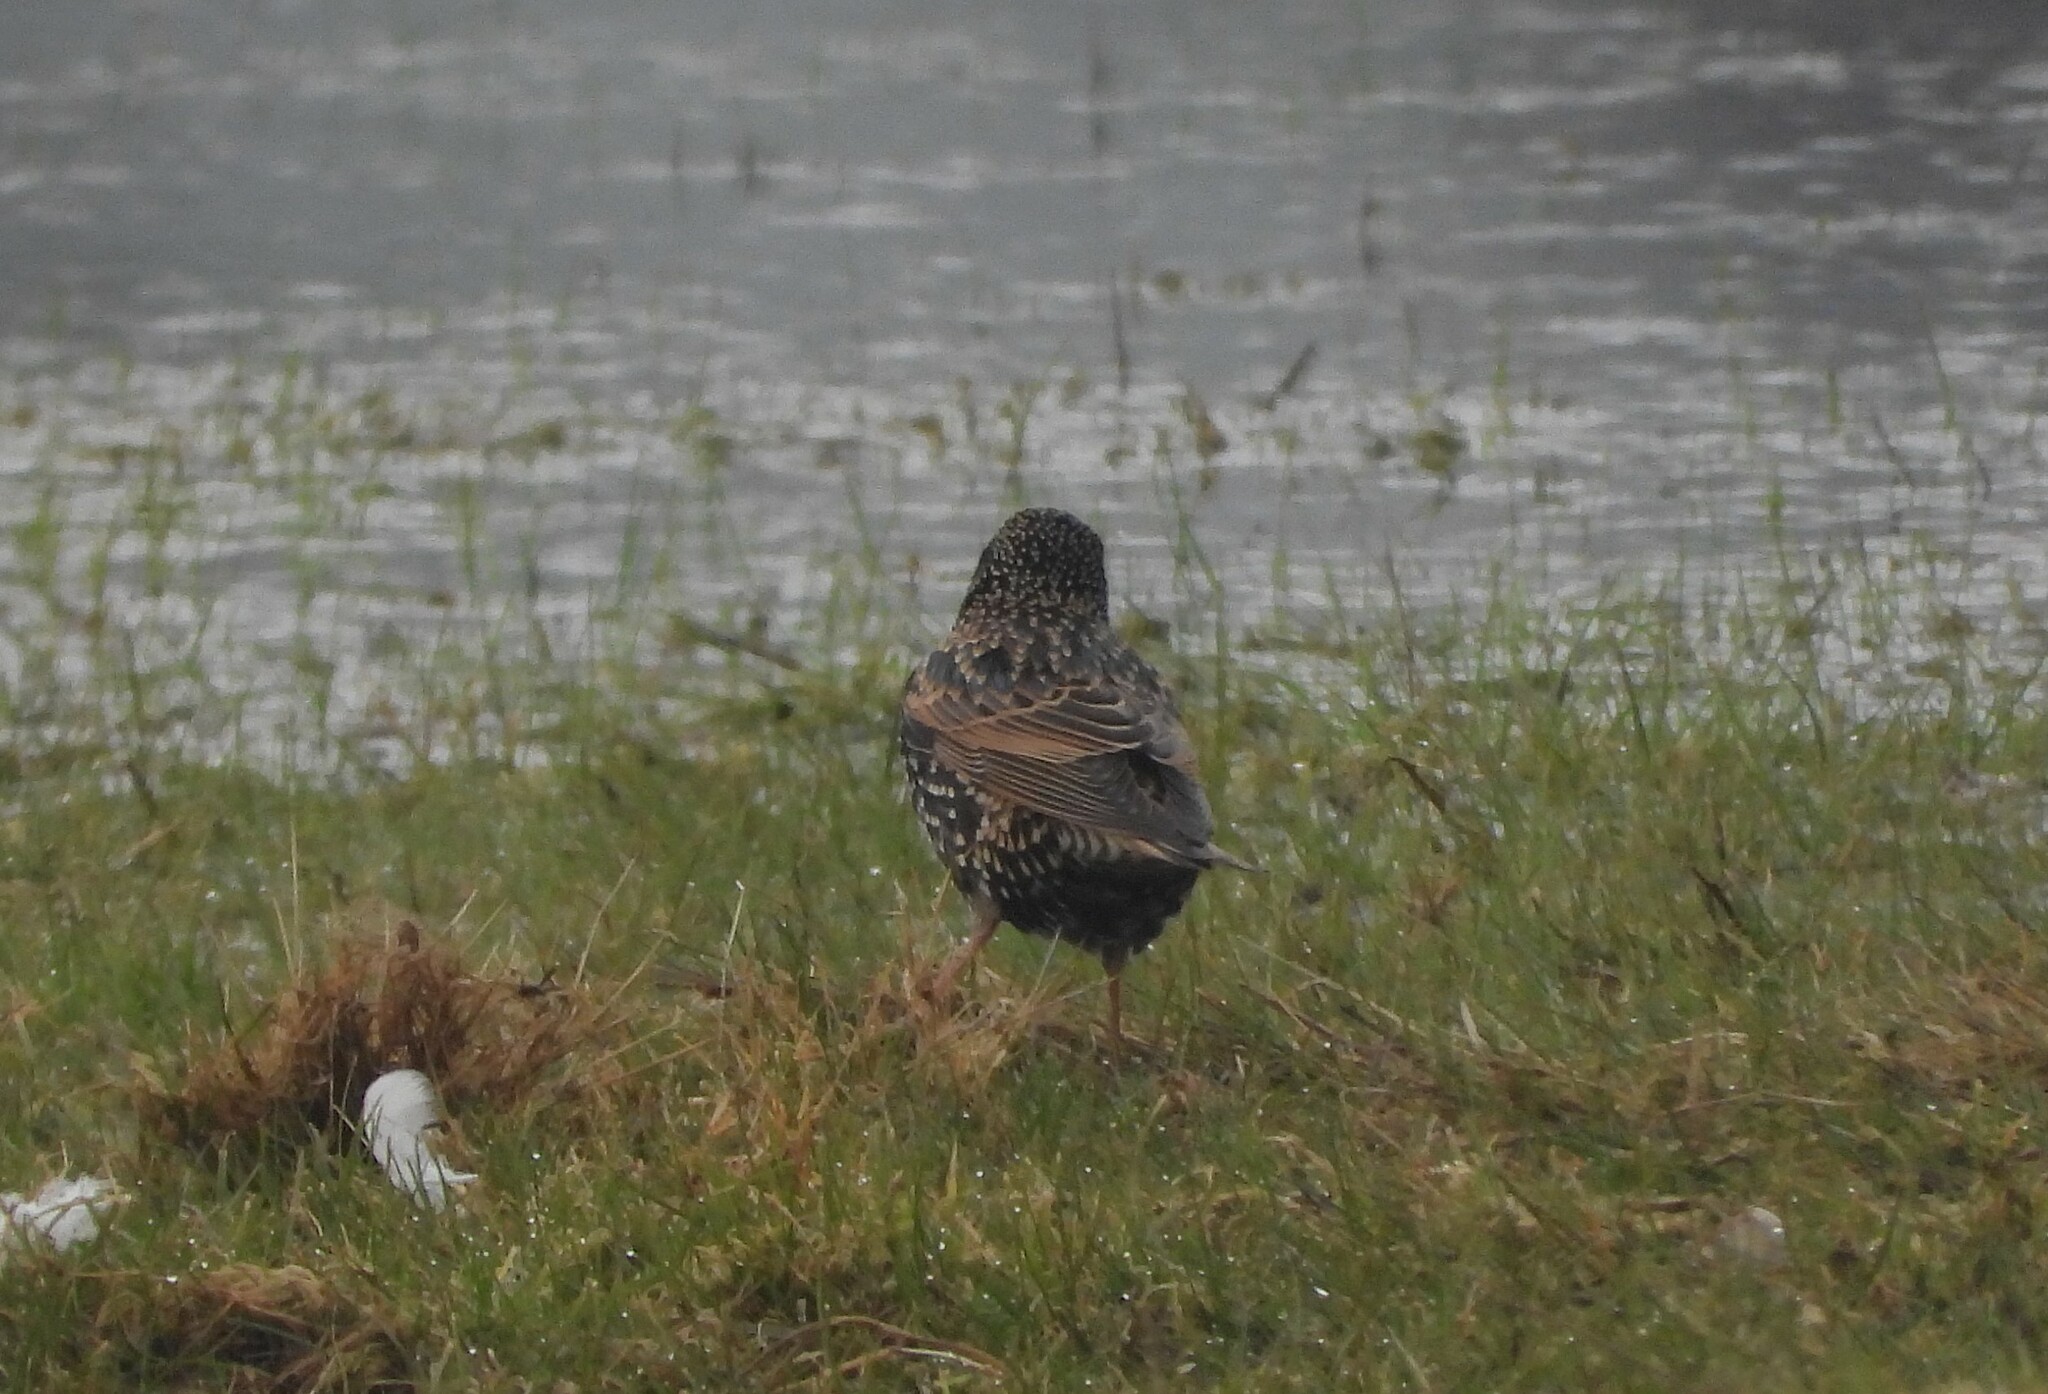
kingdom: Animalia
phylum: Chordata
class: Aves
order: Passeriformes
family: Sturnidae
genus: Sturnus
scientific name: Sturnus vulgaris
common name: Common starling
